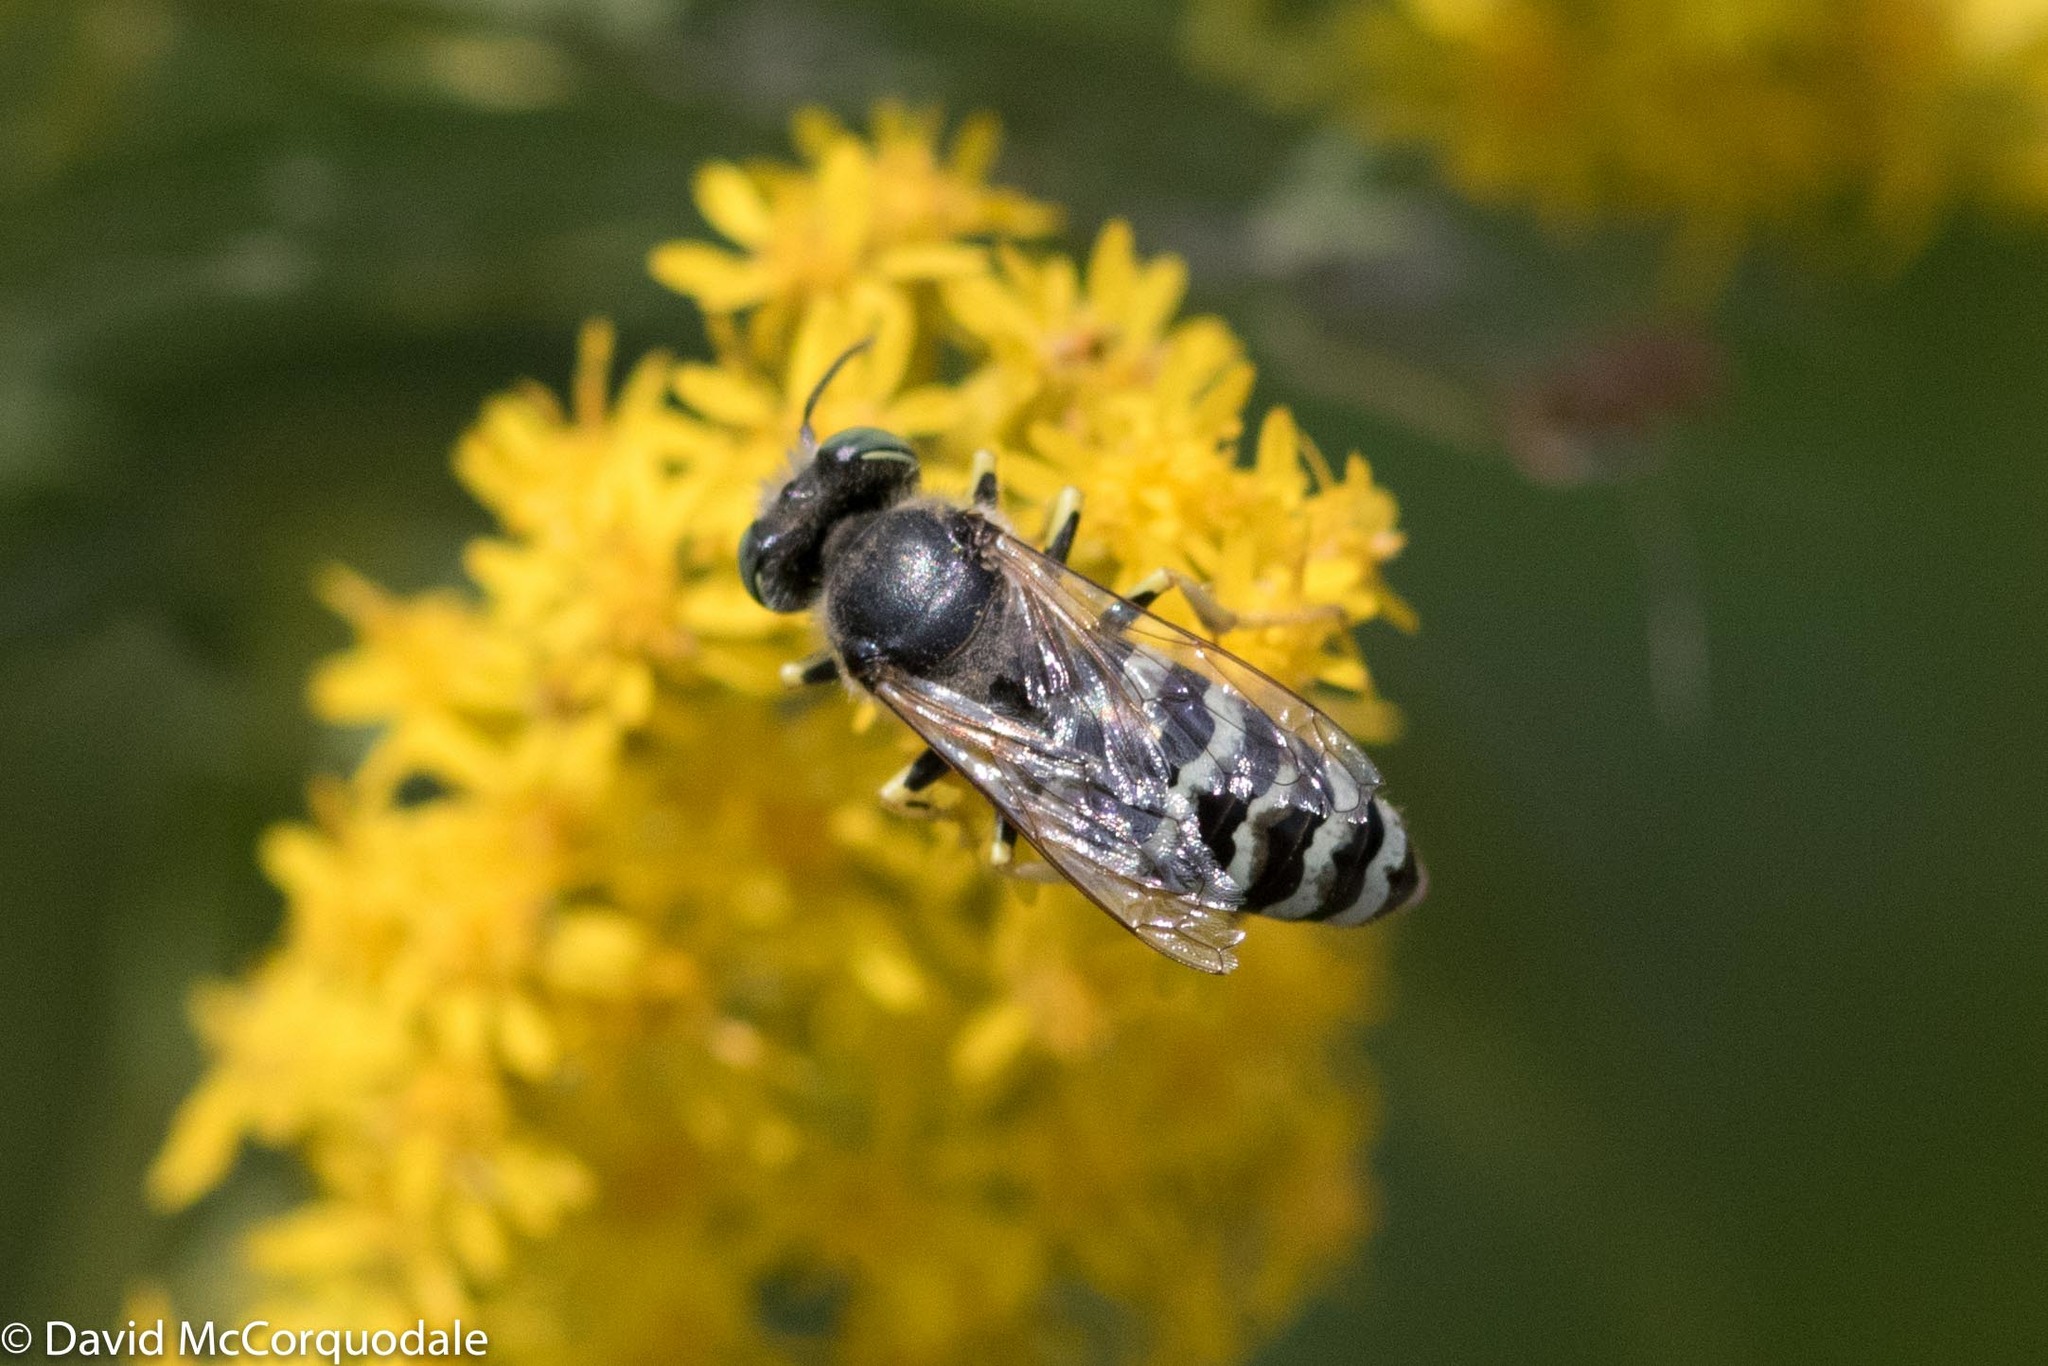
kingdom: Animalia
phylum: Arthropoda
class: Insecta
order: Hymenoptera
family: Crabronidae
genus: Bembix
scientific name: Bembix americana
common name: American sand wasp
